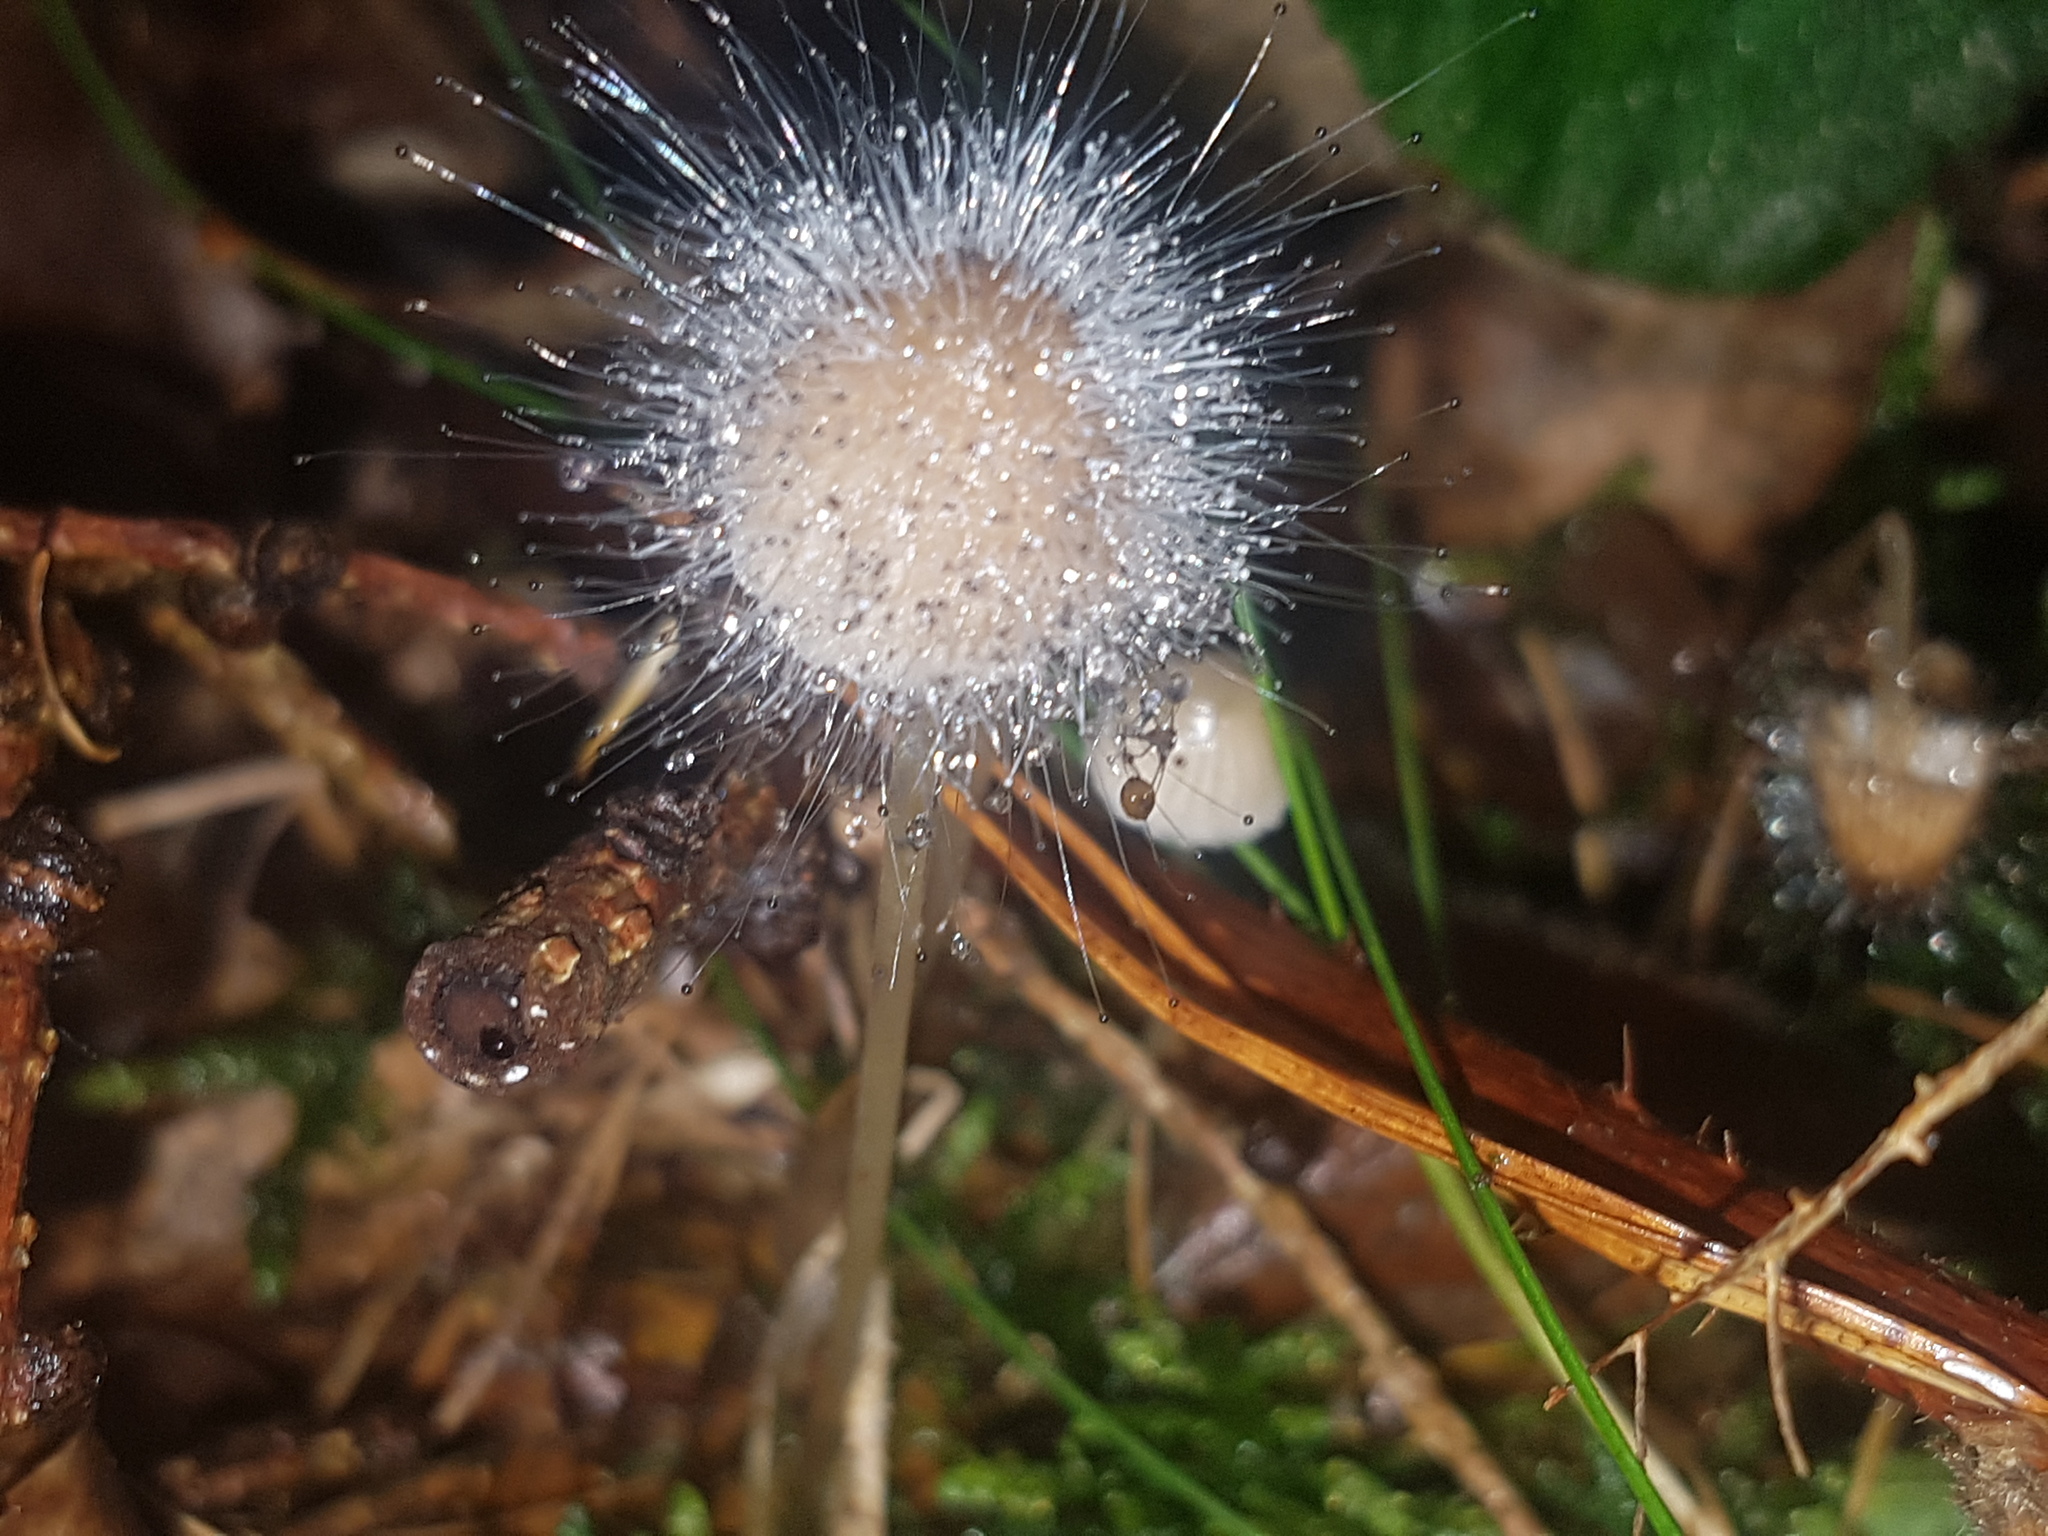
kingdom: Fungi
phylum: Mucoromycota
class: Mucoromycetes
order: Mucorales
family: Phycomycetaceae
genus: Spinellus
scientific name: Spinellus fusiger
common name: Bonnet mould
